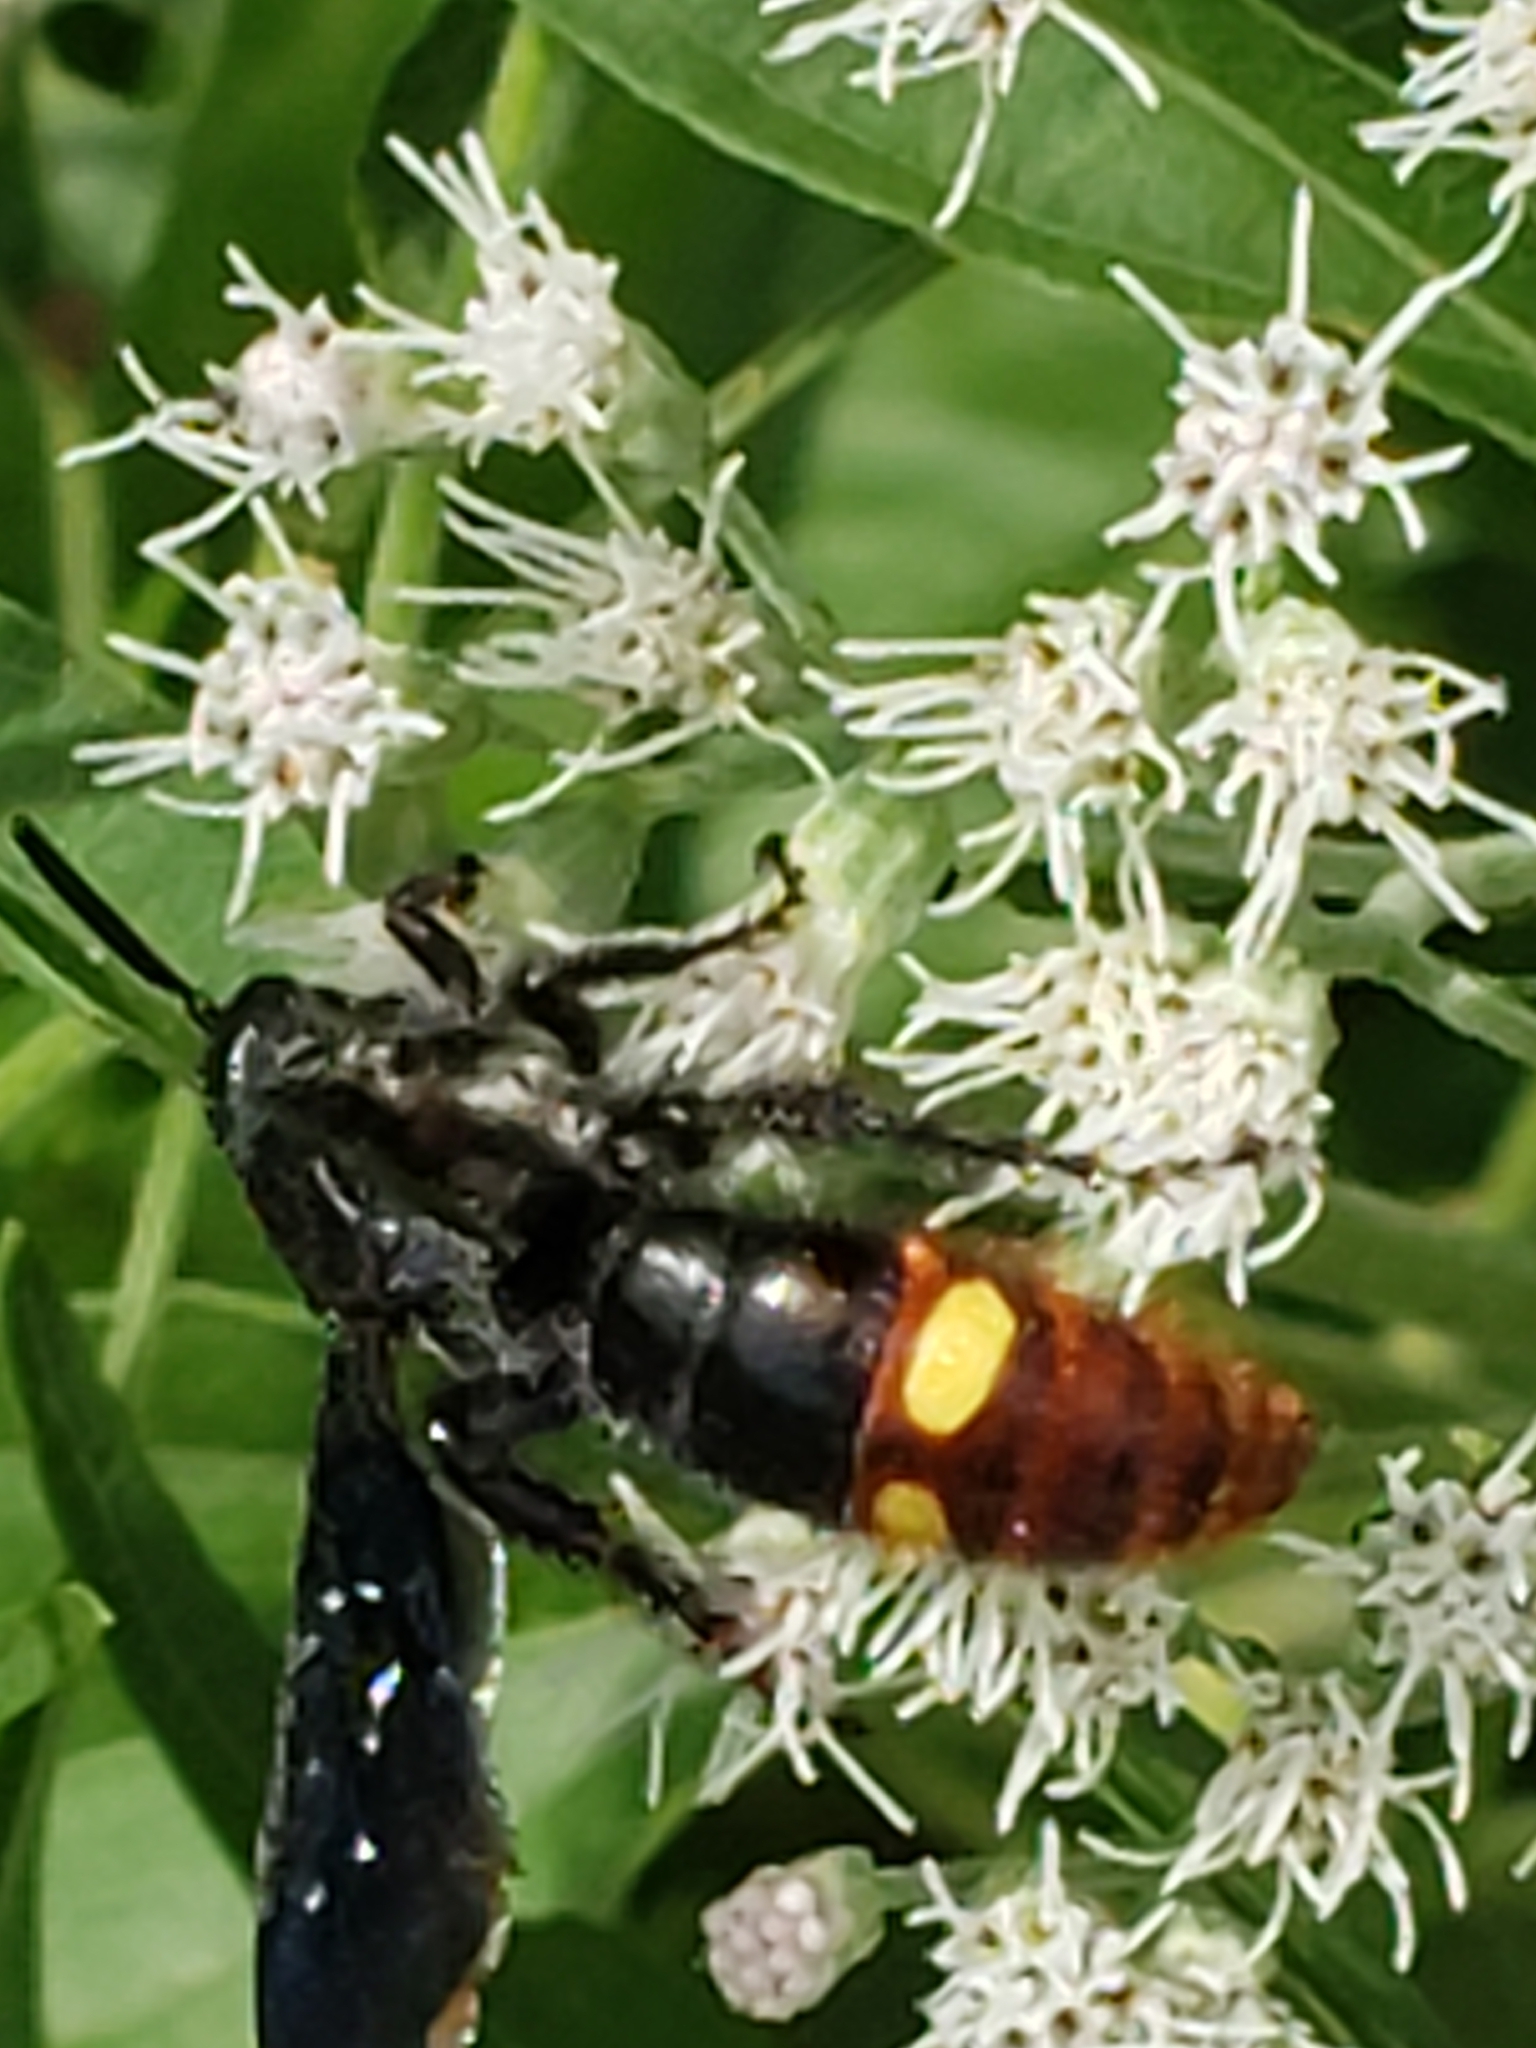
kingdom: Animalia
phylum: Arthropoda
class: Insecta
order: Hymenoptera
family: Scoliidae
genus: Scolia
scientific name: Scolia dubia
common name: Blue-winged scoliid wasp
